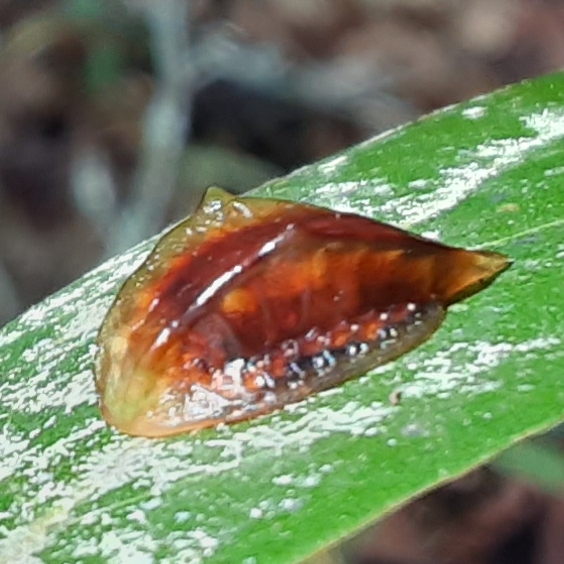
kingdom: Animalia
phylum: Arthropoda
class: Insecta
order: Lepidoptera
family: Limacodidae
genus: Prolimacodes
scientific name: Prolimacodes badia
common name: Skiff moth
